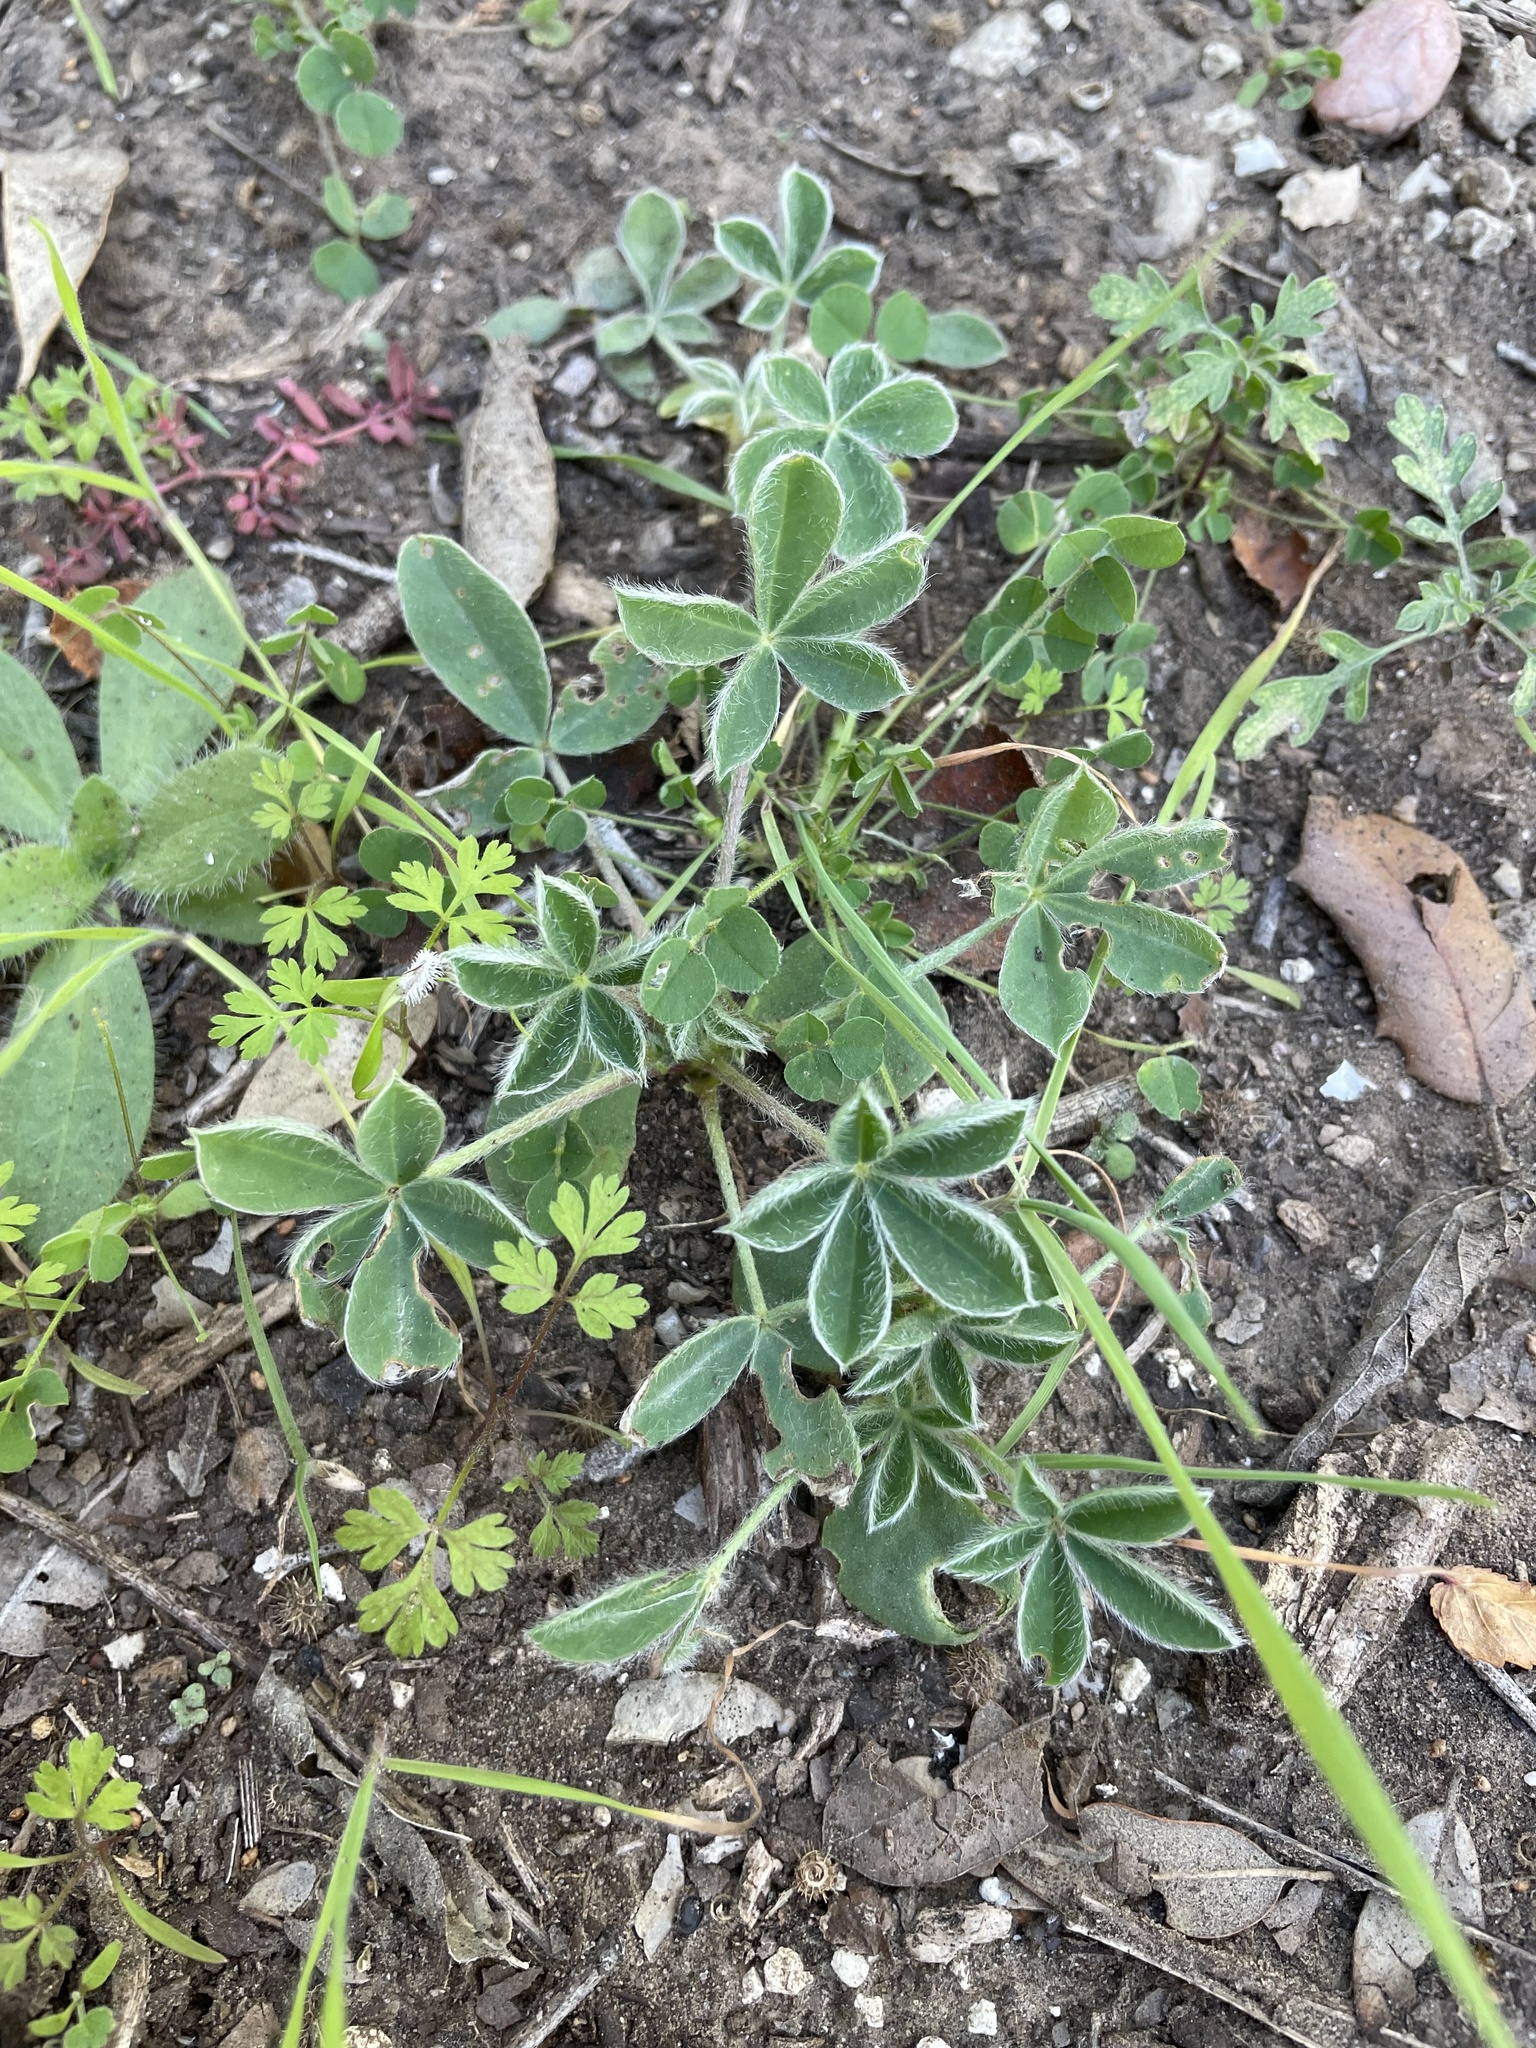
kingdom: Plantae
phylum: Tracheophyta
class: Magnoliopsida
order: Fabales
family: Fabaceae
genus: Lupinus
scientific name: Lupinus texensis
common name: Texas bluebonnet
